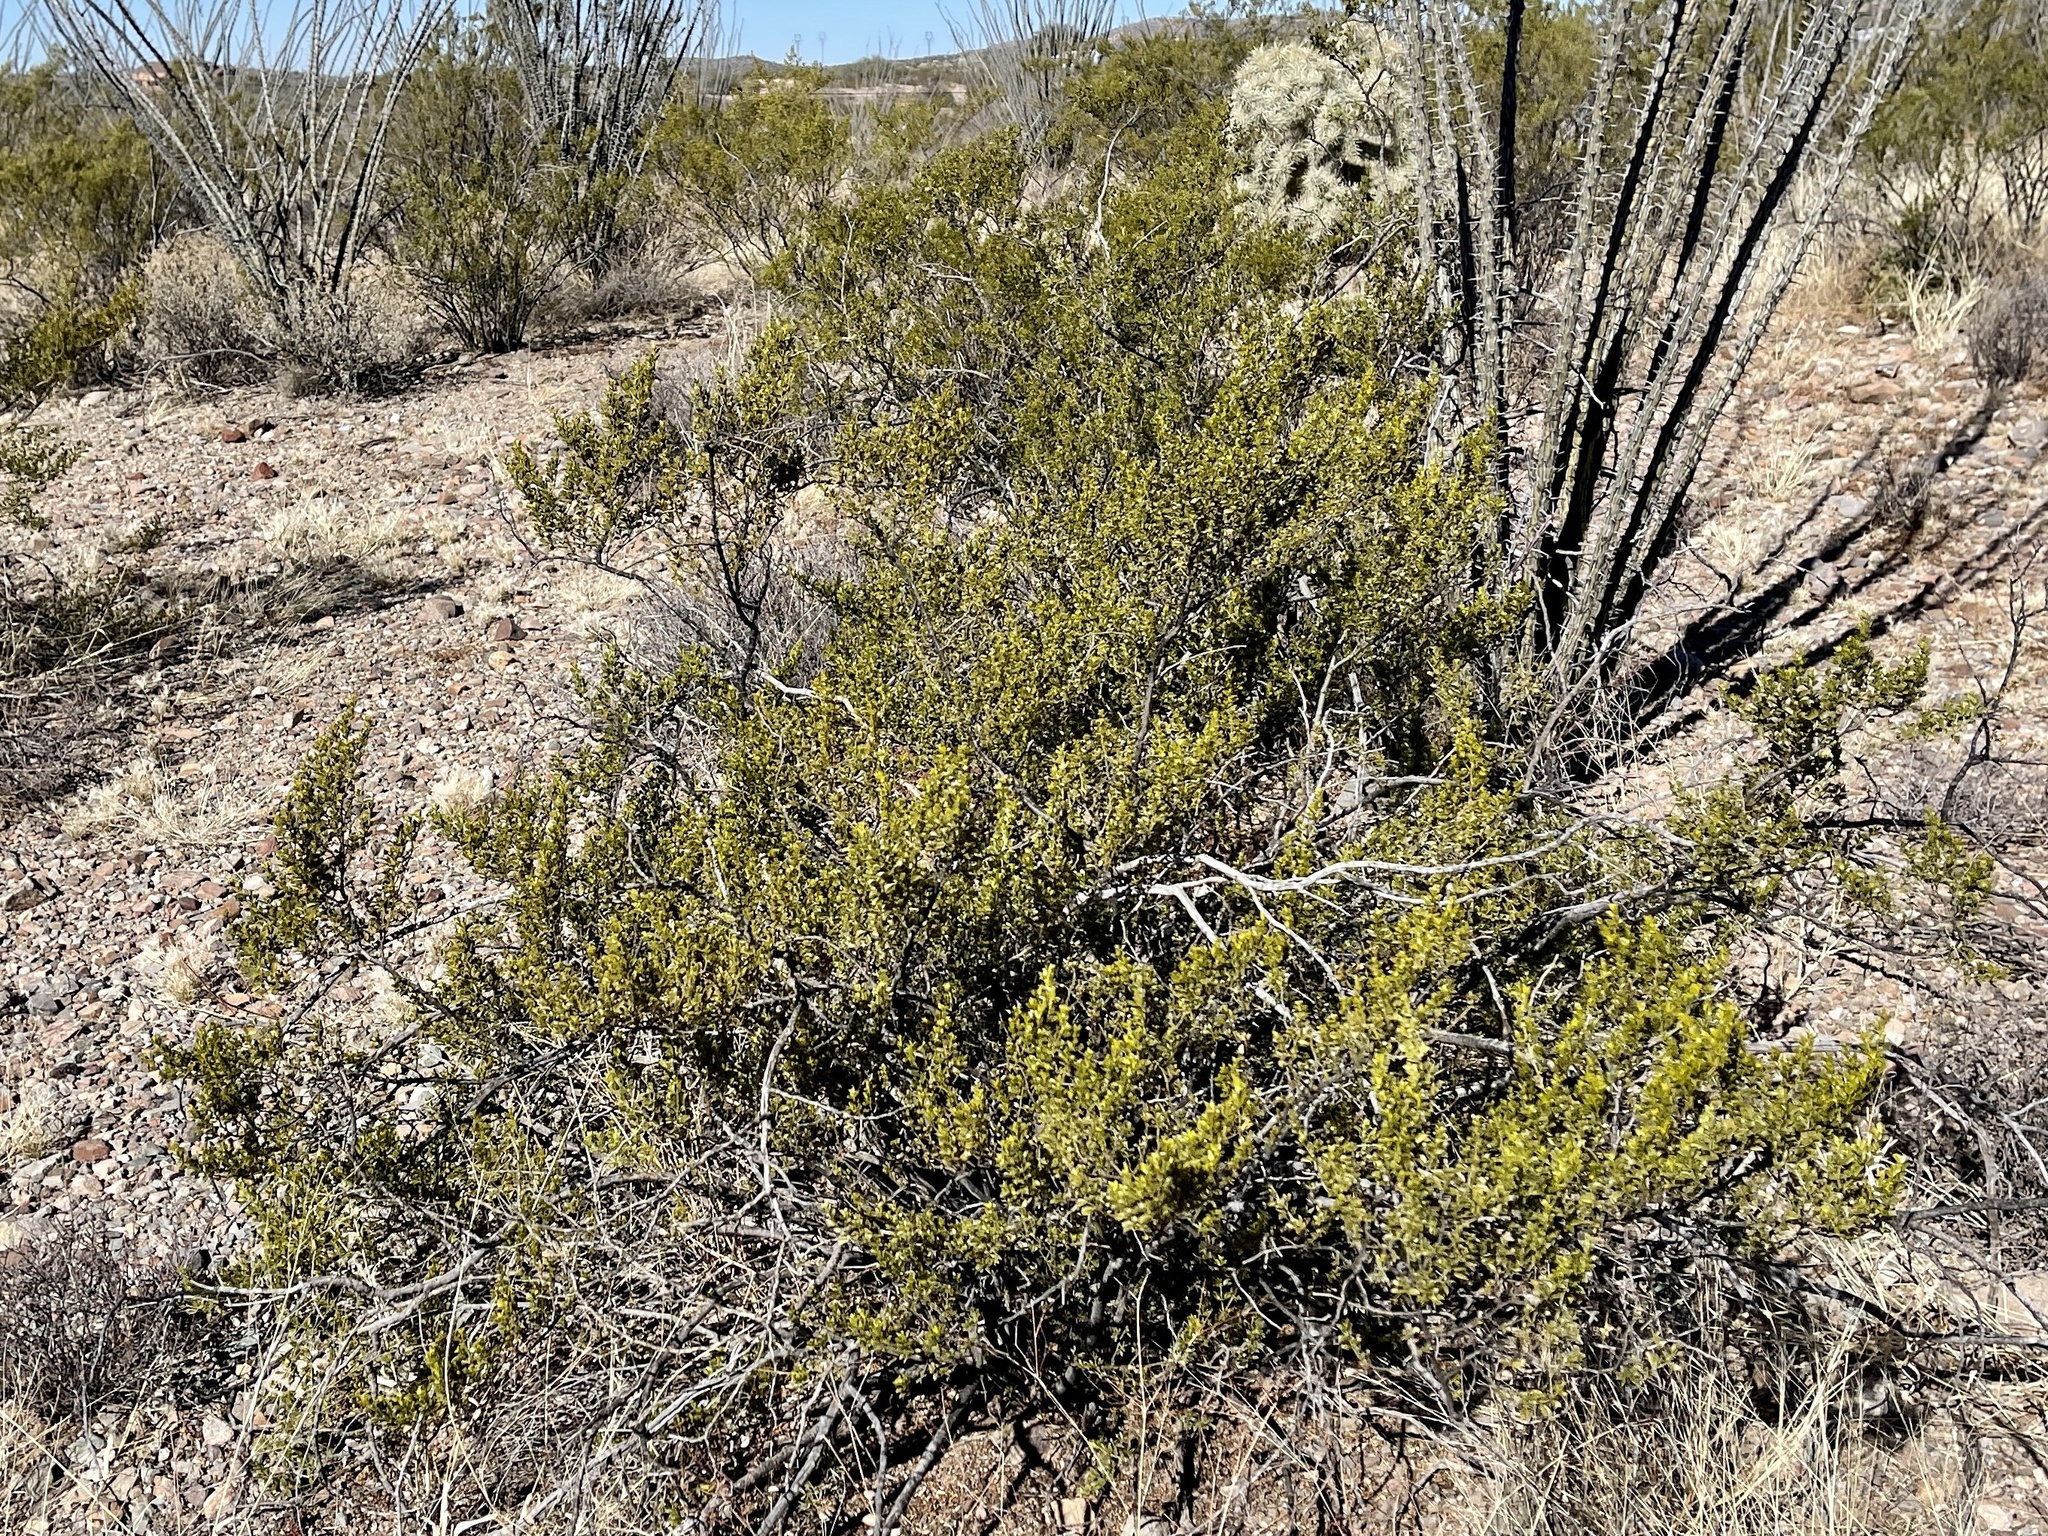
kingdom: Plantae
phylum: Tracheophyta
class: Magnoliopsida
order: Zygophyllales
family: Zygophyllaceae
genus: Larrea
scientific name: Larrea tridentata
